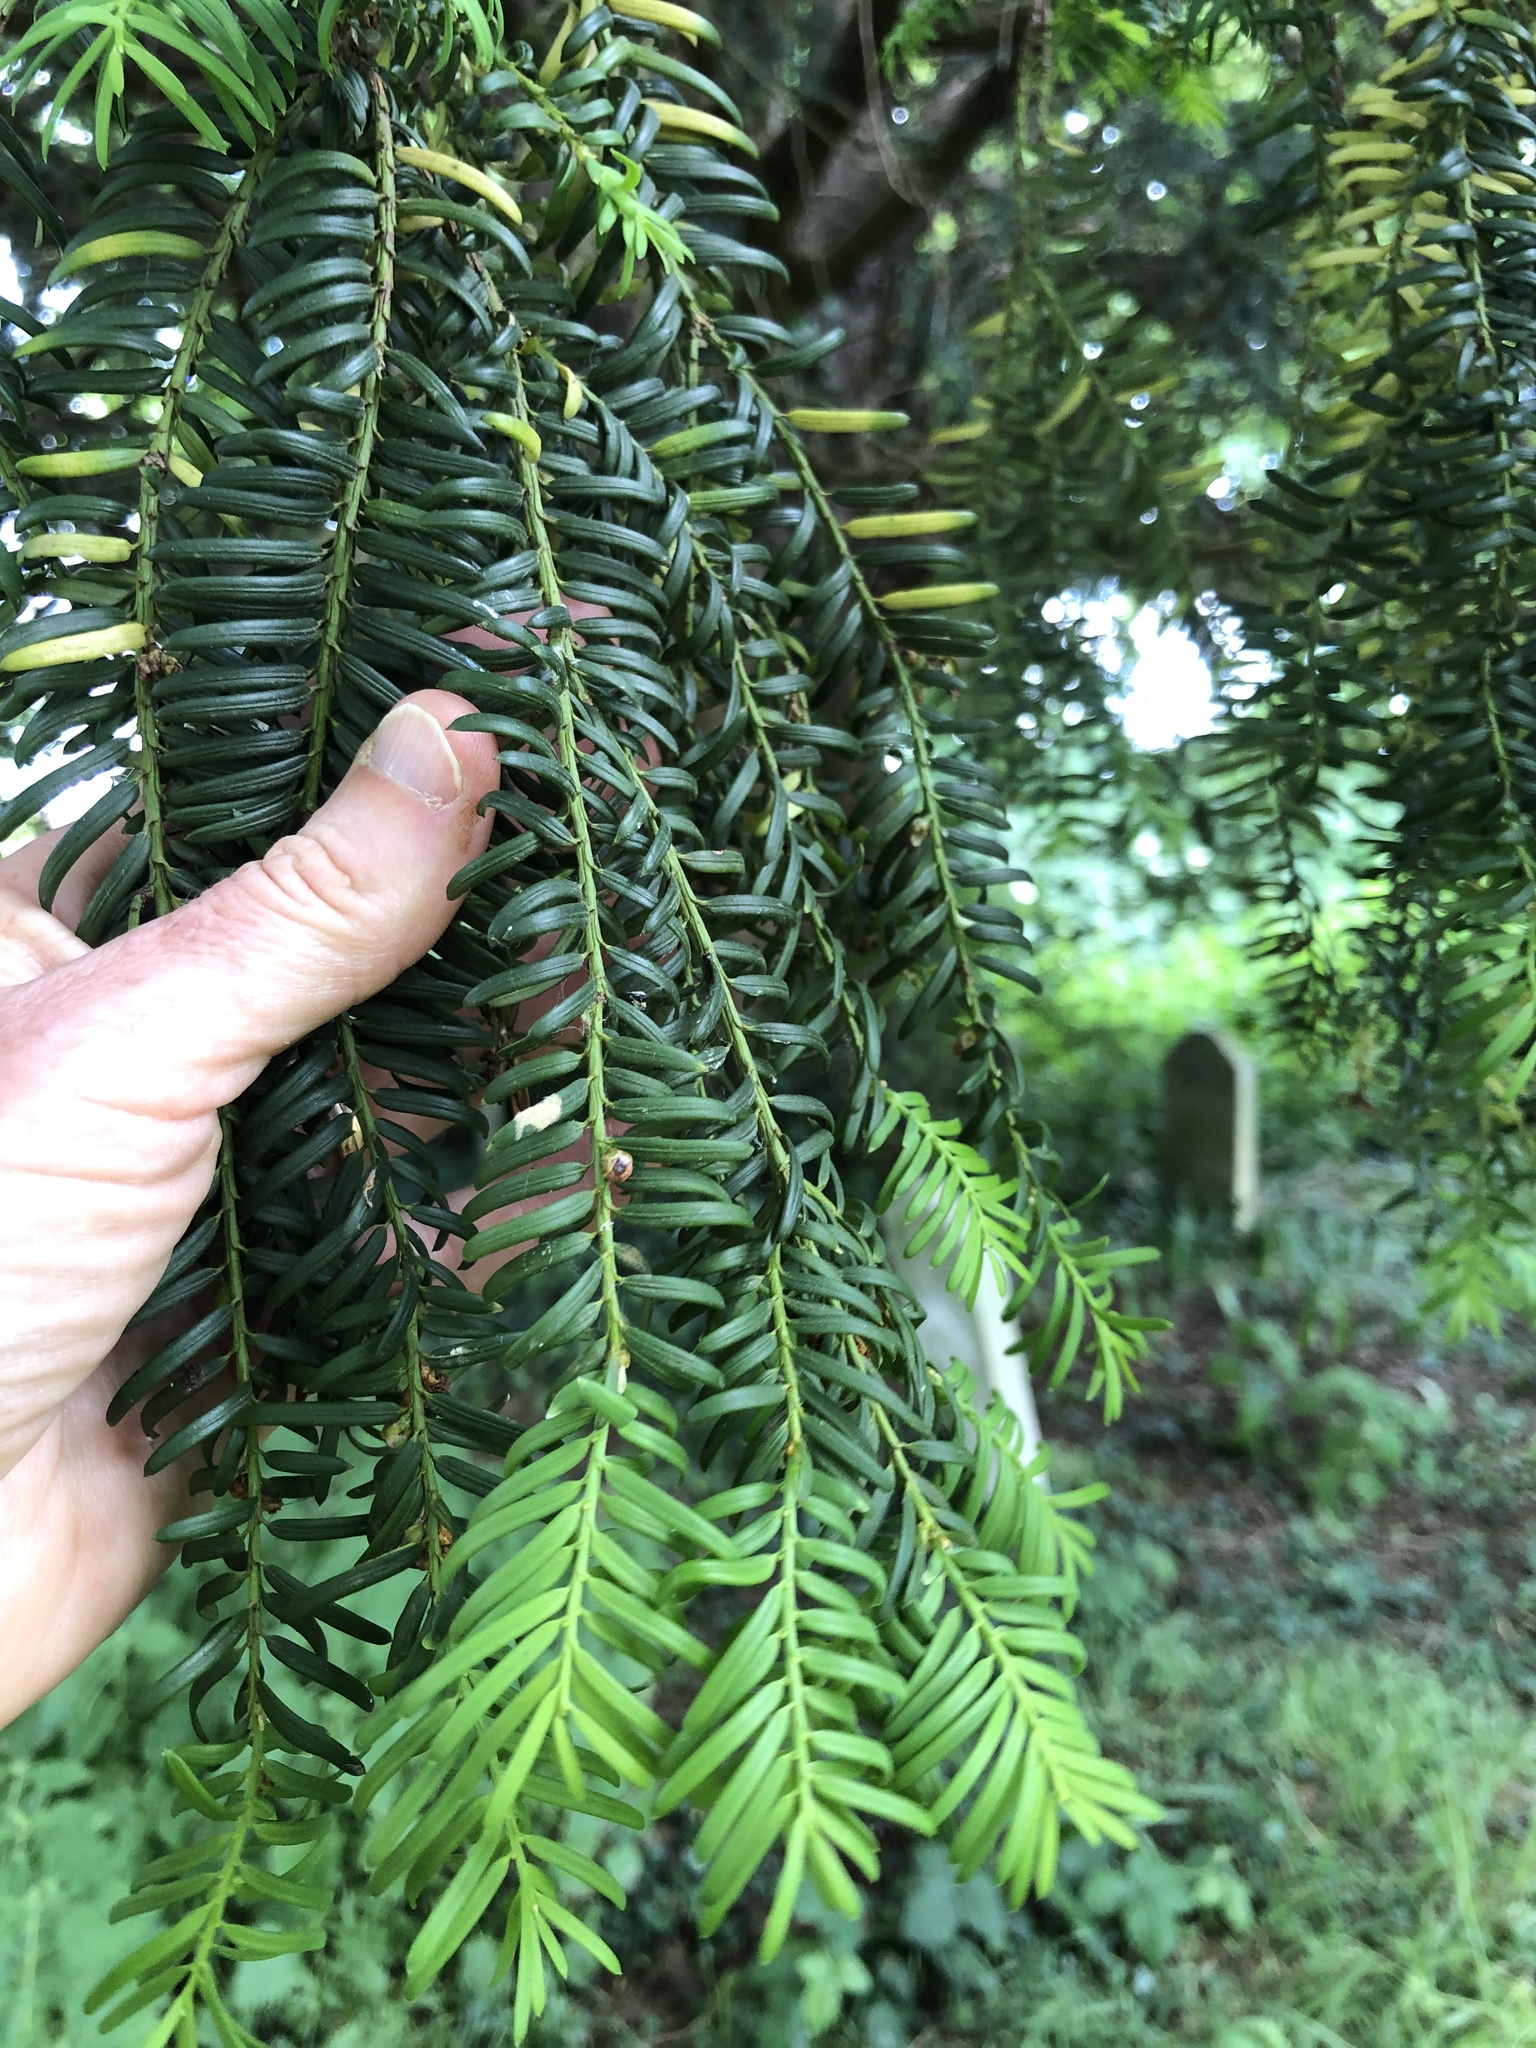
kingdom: Plantae
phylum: Tracheophyta
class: Pinopsida
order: Pinales
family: Taxaceae
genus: Taxus
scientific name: Taxus baccata
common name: Yew
